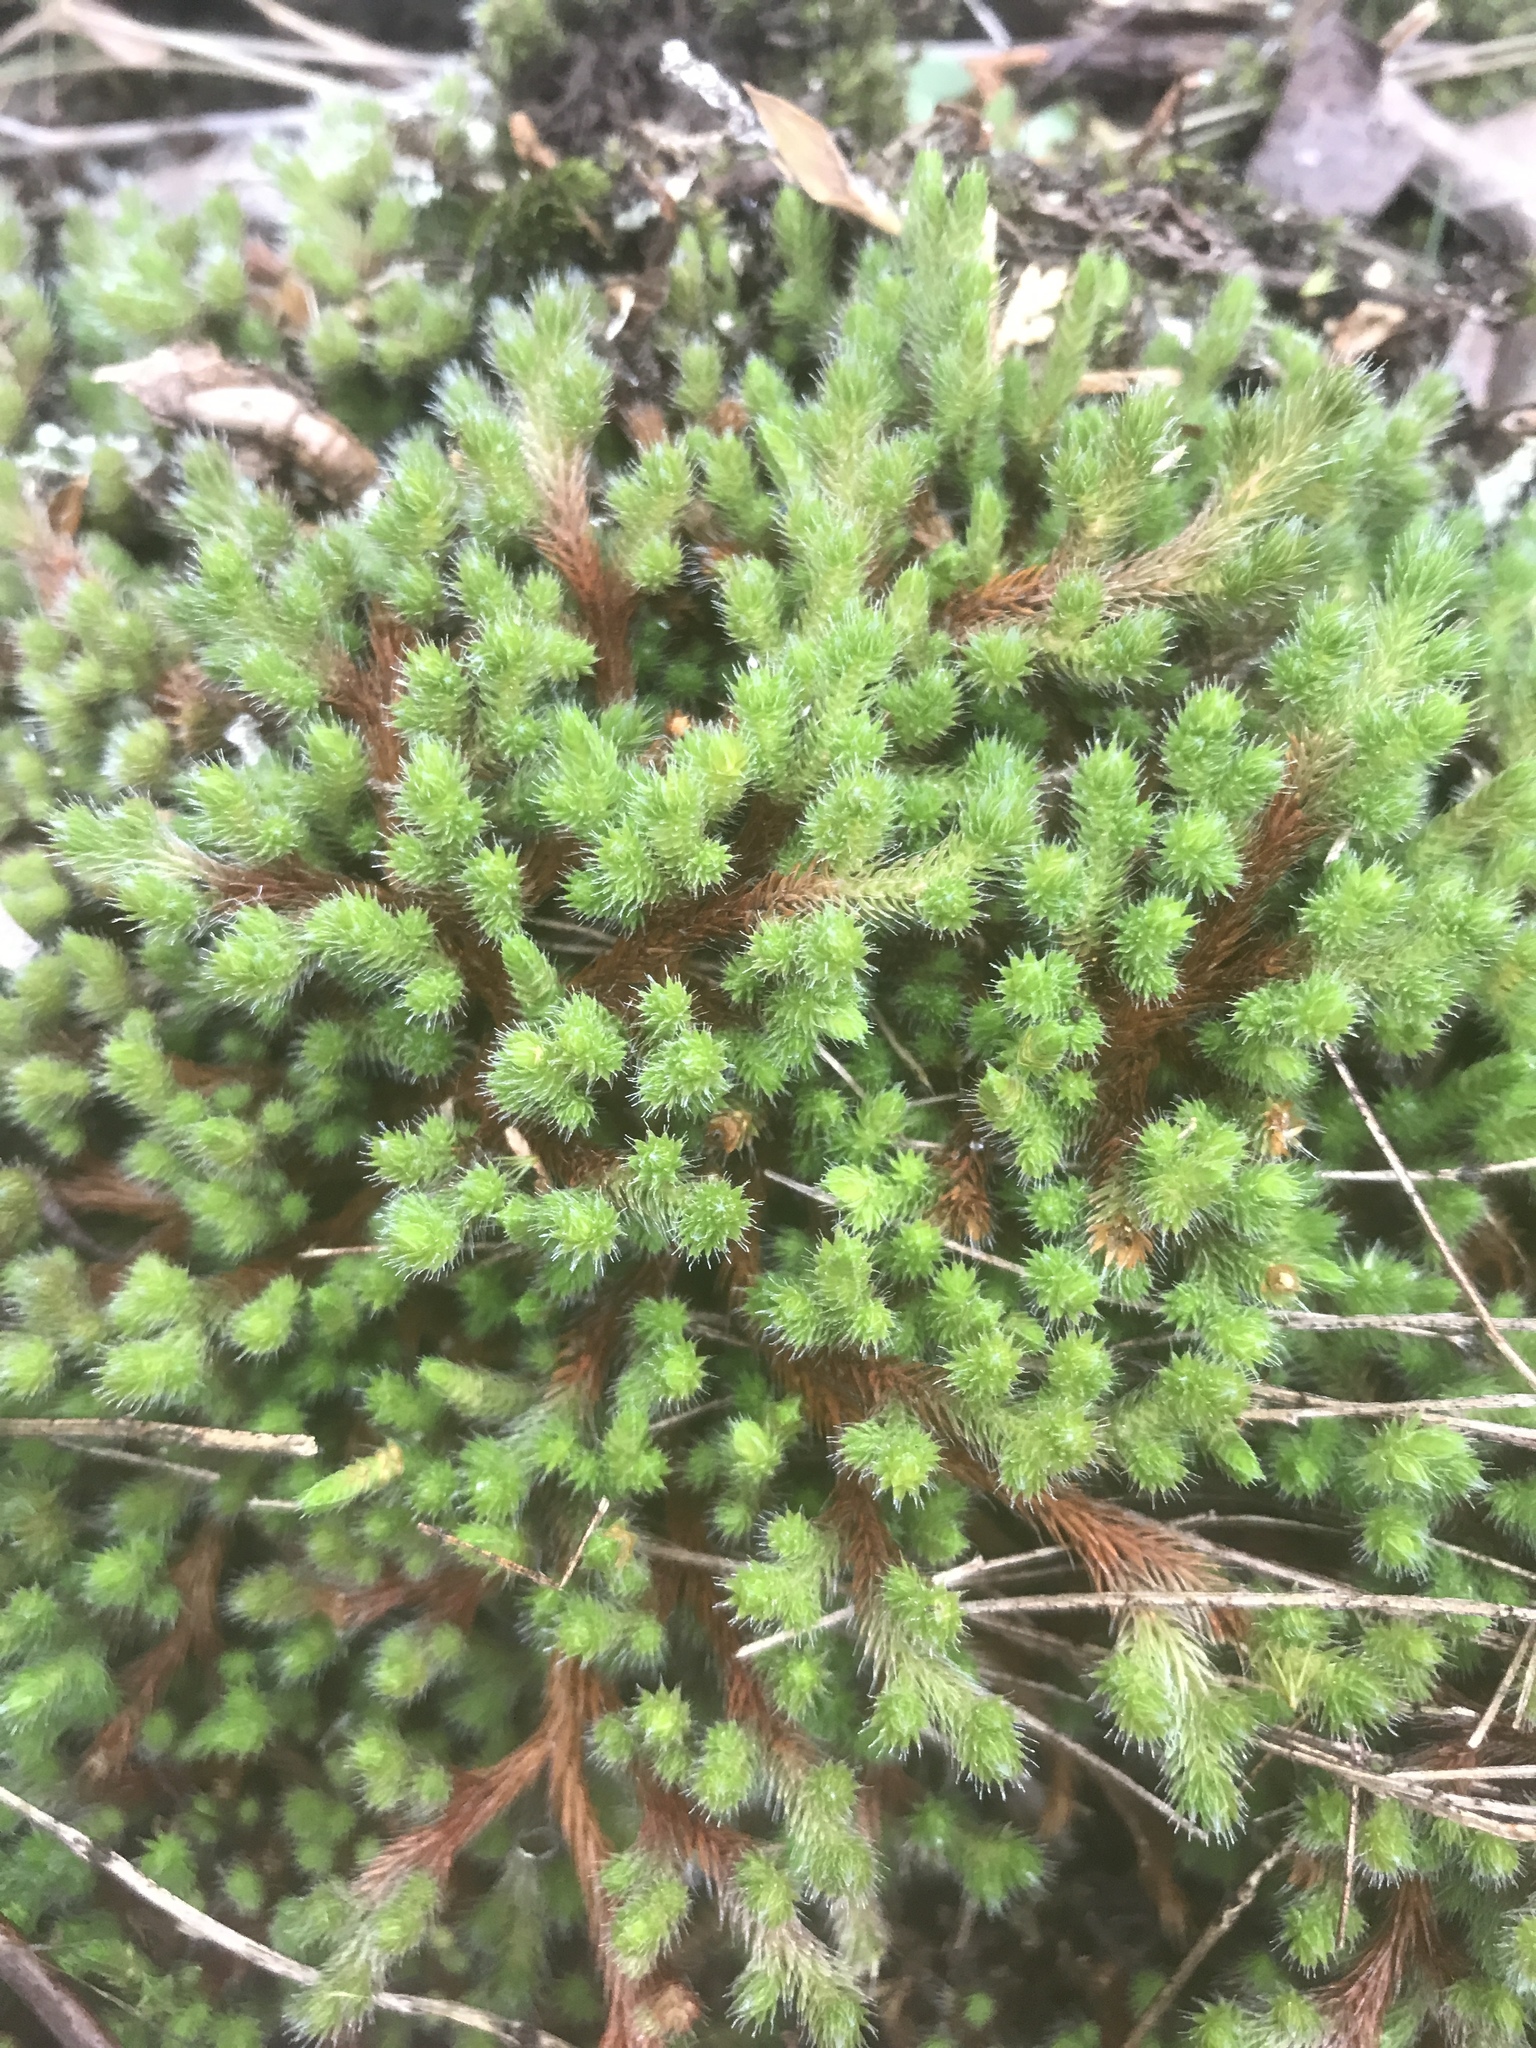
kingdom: Plantae
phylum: Tracheophyta
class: Lycopodiopsida
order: Selaginellales
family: Selaginellaceae
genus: Selaginella
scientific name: Selaginella rupestris
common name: Dwarf spikemoss
